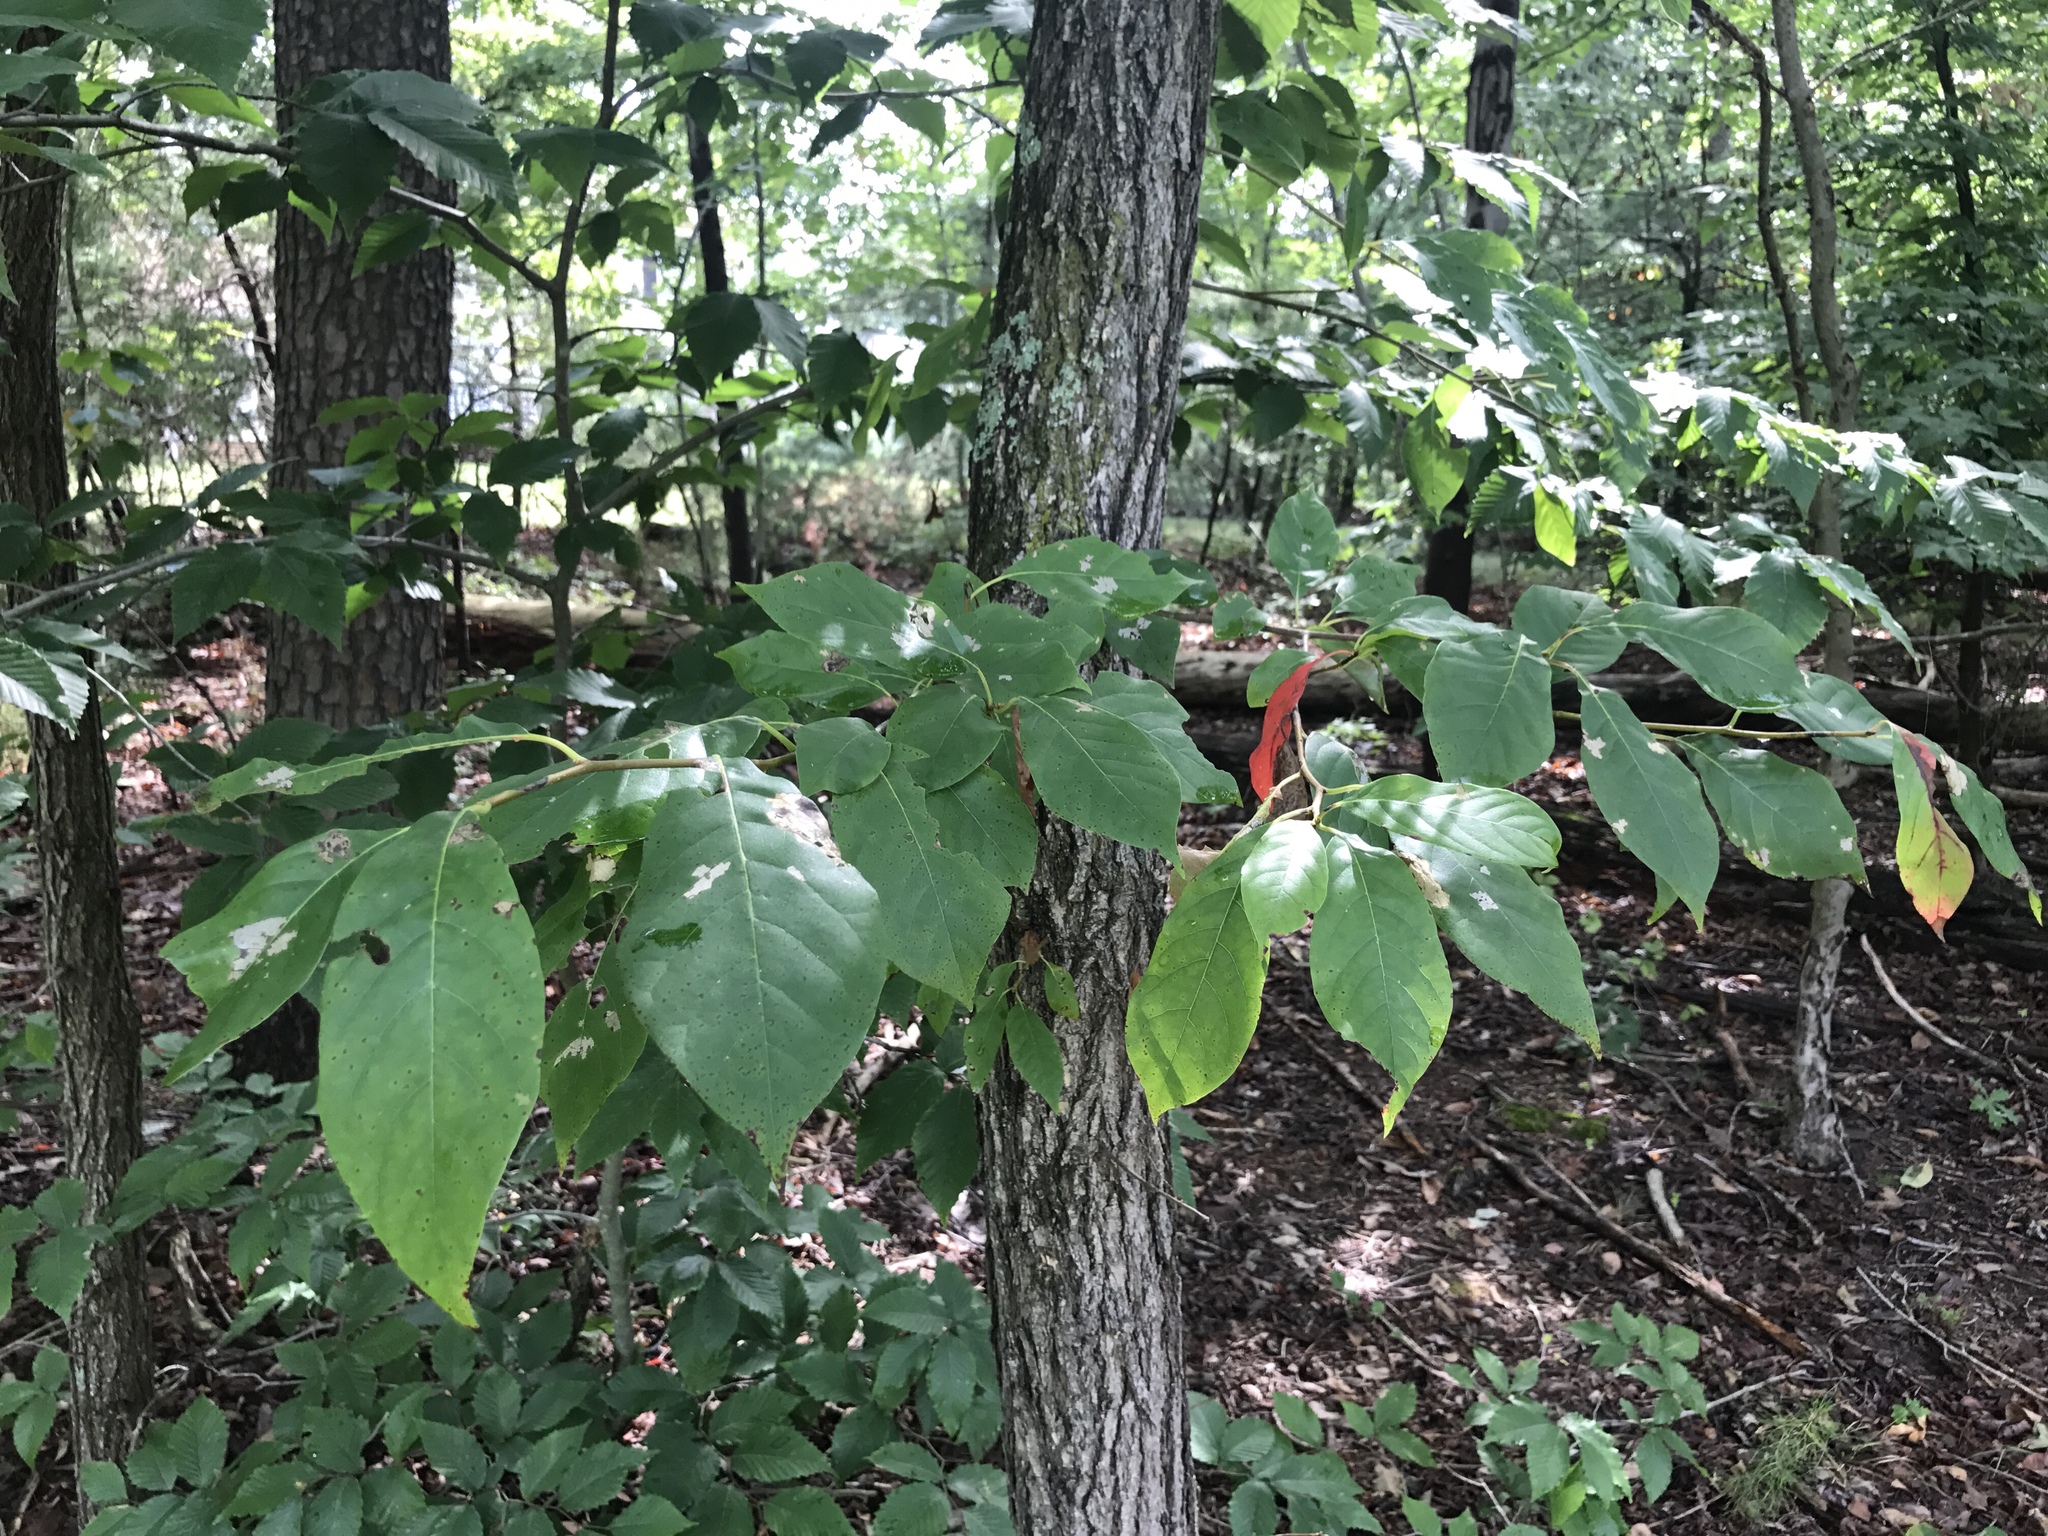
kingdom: Plantae
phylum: Tracheophyta
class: Magnoliopsida
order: Cornales
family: Nyssaceae
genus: Nyssa
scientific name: Nyssa sylvatica
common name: Black tupelo
